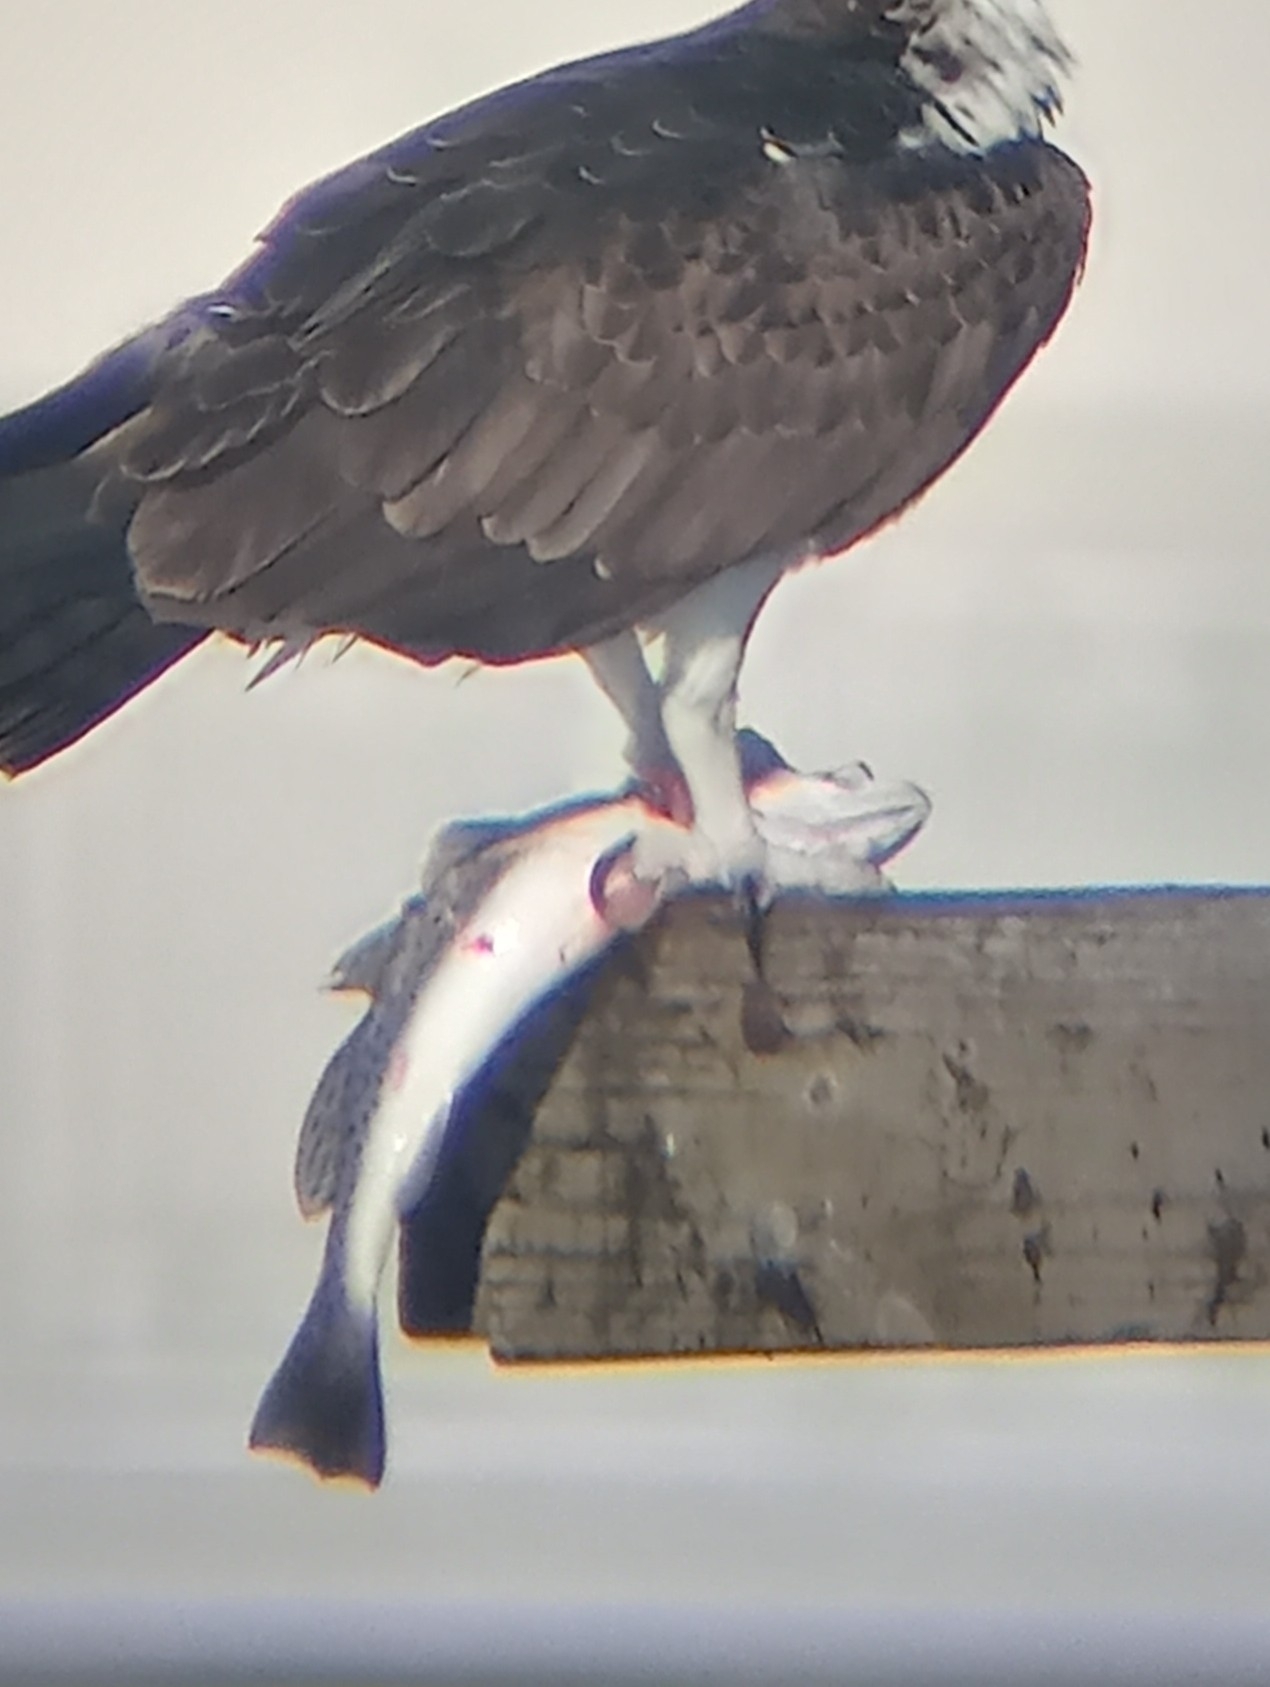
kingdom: Animalia
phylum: Chordata
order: Perciformes
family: Sciaenidae
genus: Cynoscion
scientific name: Cynoscion nebulosus
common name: Spotted seatrout
